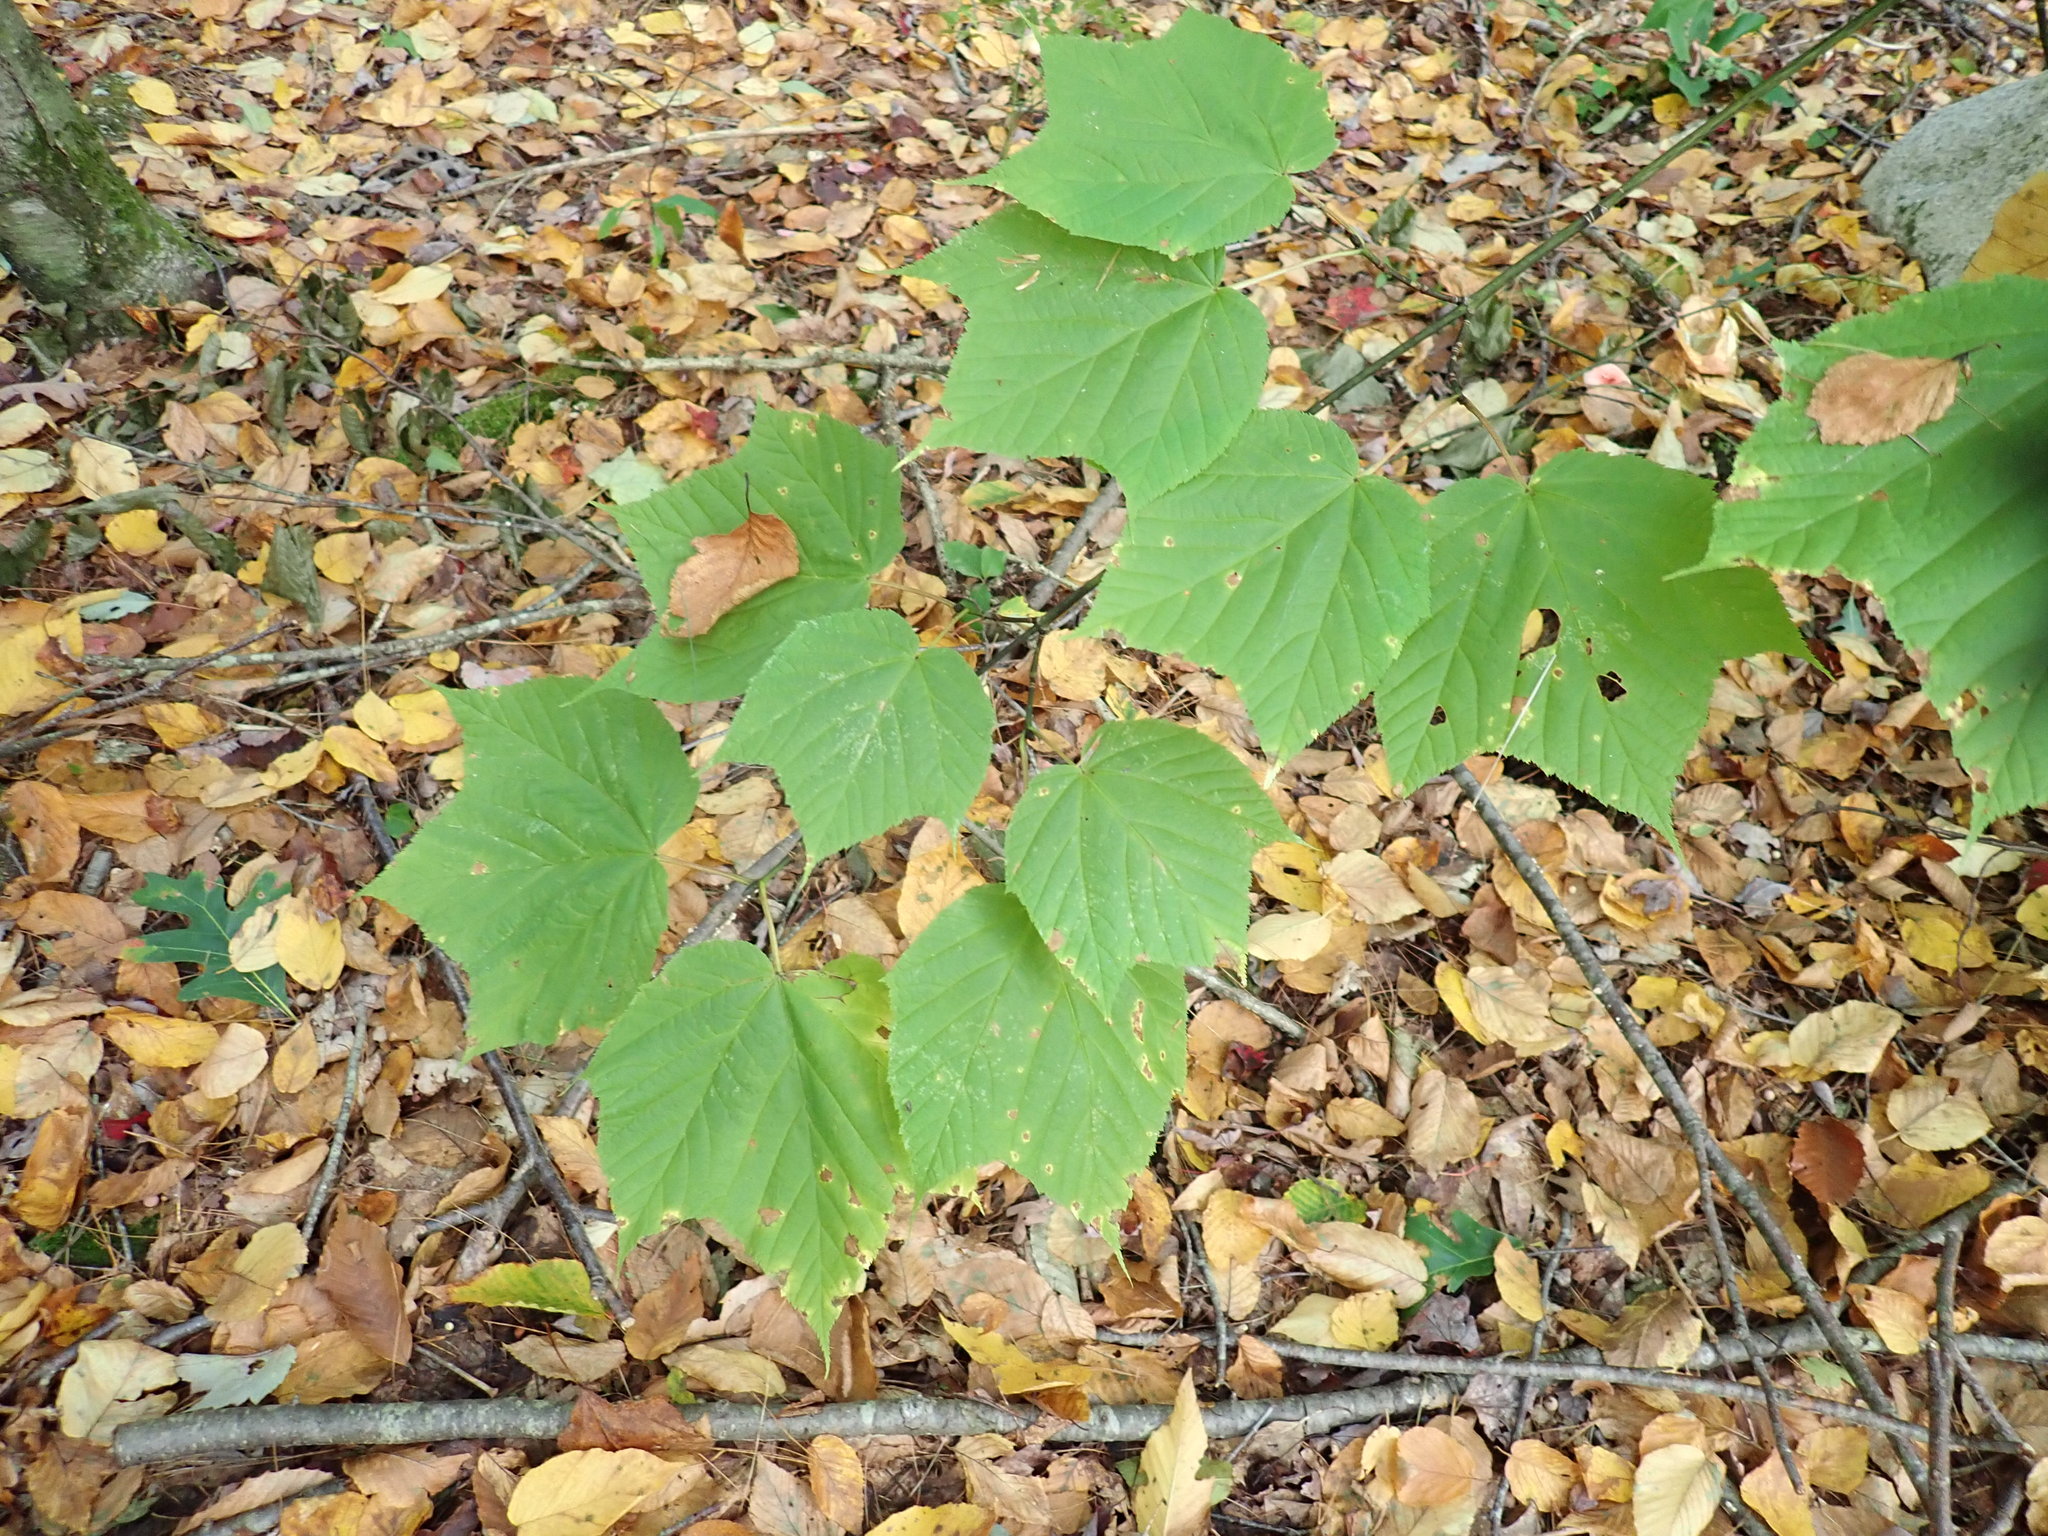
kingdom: Plantae
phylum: Tracheophyta
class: Magnoliopsida
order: Sapindales
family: Sapindaceae
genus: Acer
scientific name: Acer pensylvanicum
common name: Moosewood
